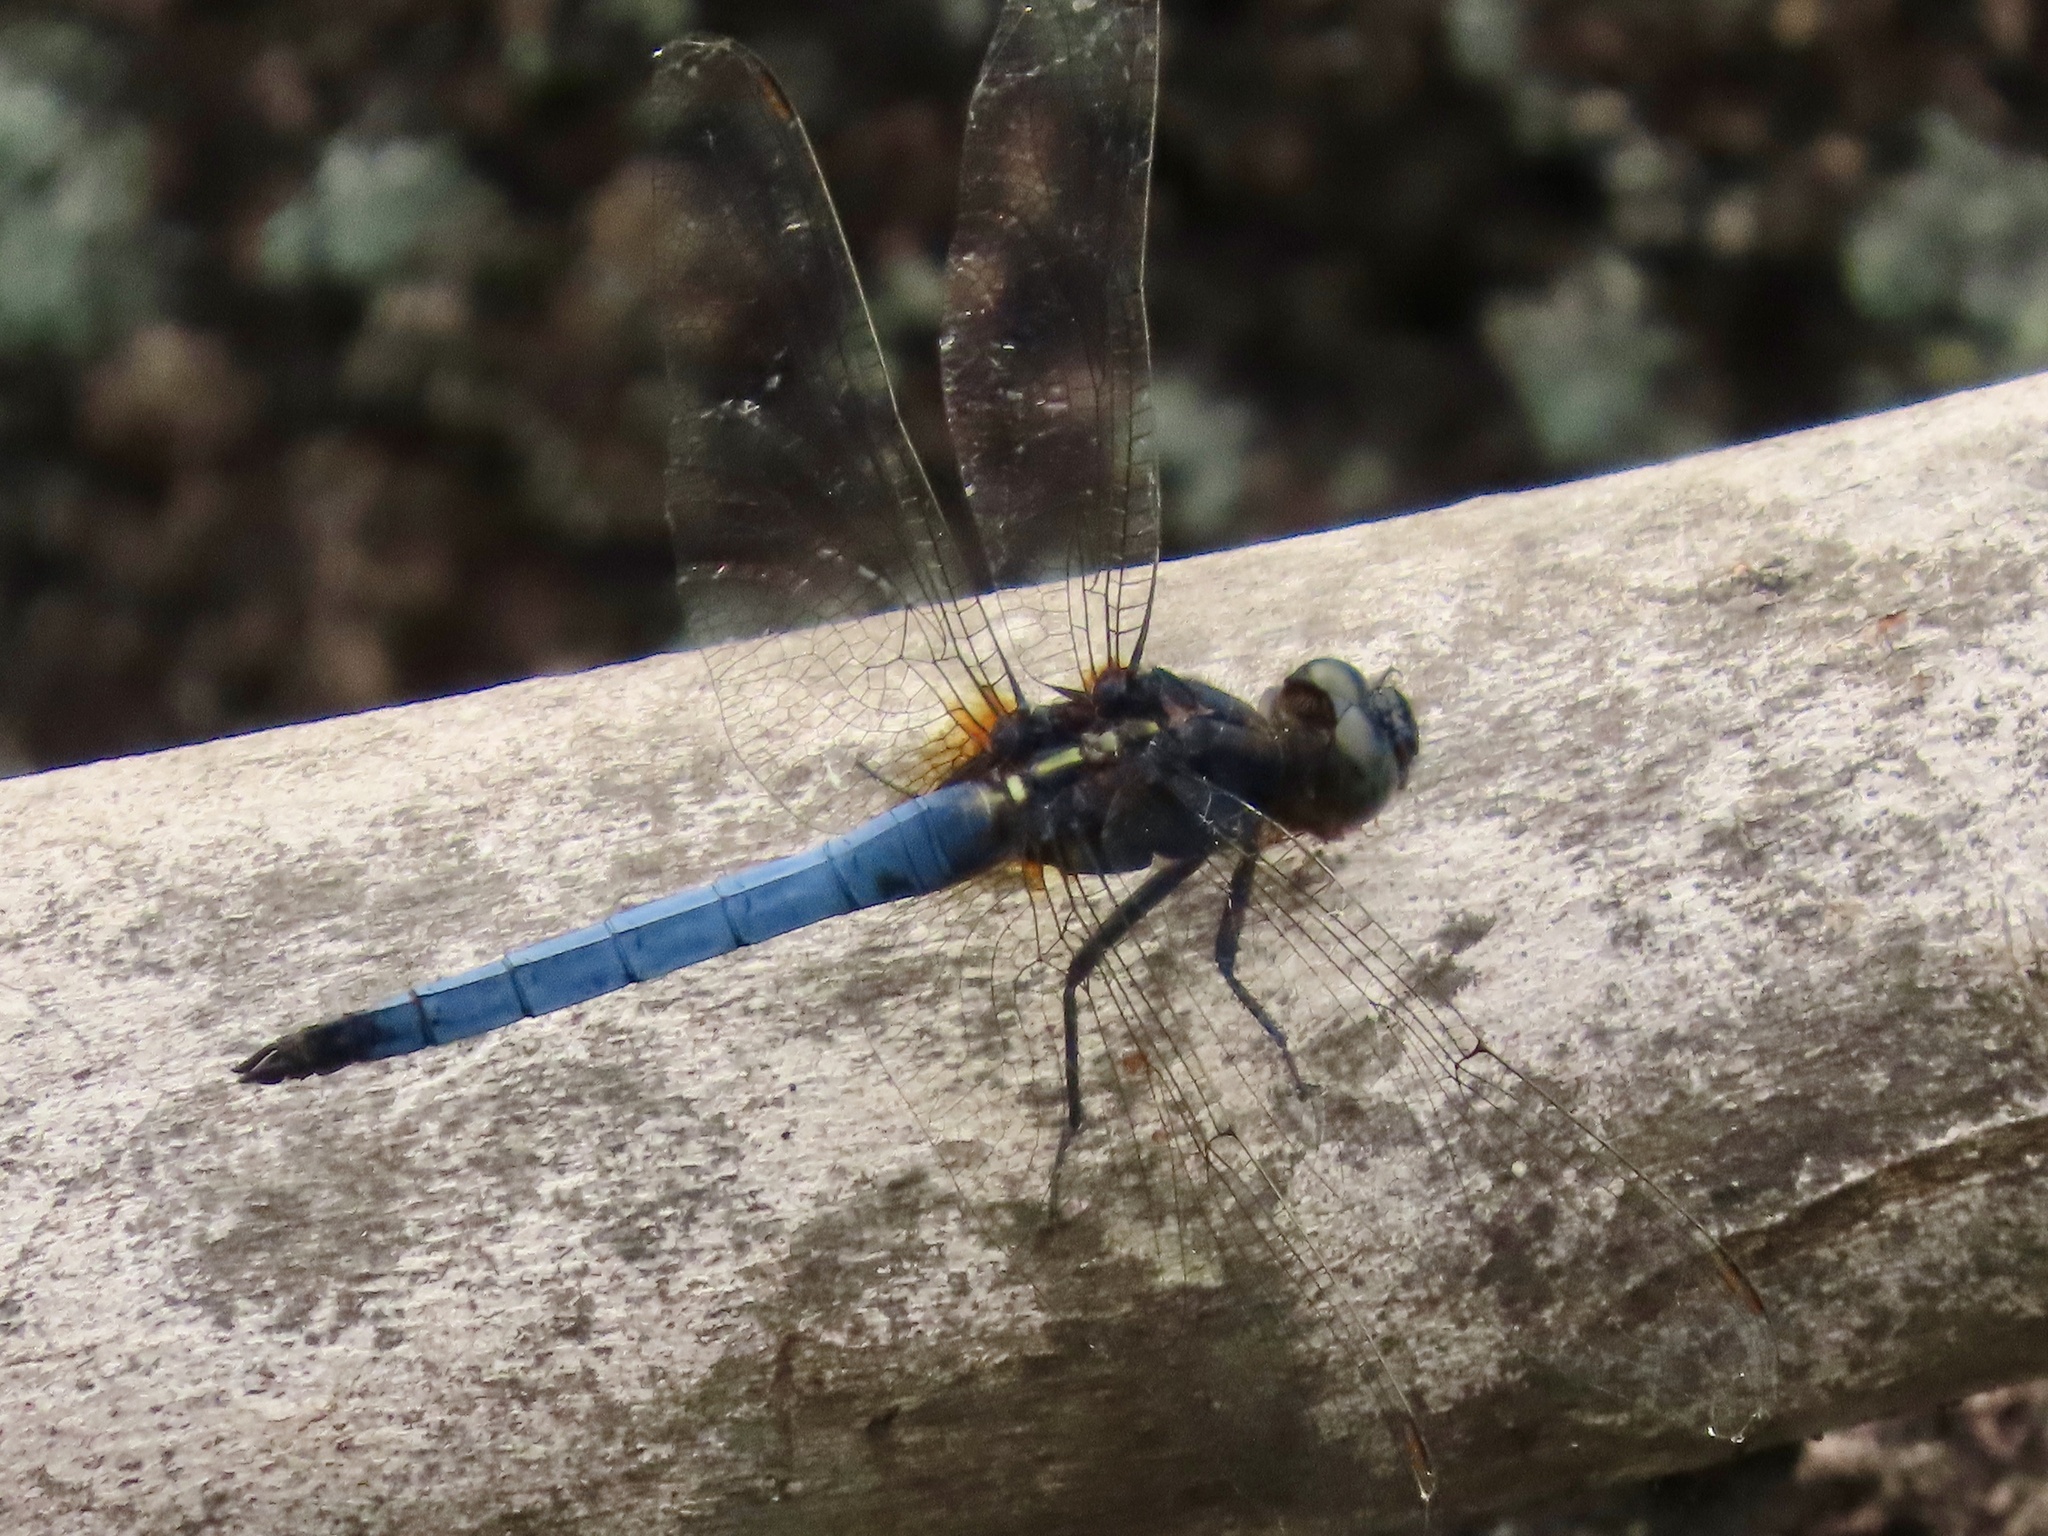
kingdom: Animalia
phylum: Arthropoda
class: Insecta
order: Odonata
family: Libellulidae
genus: Orthetrum
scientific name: Orthetrum glaucum
